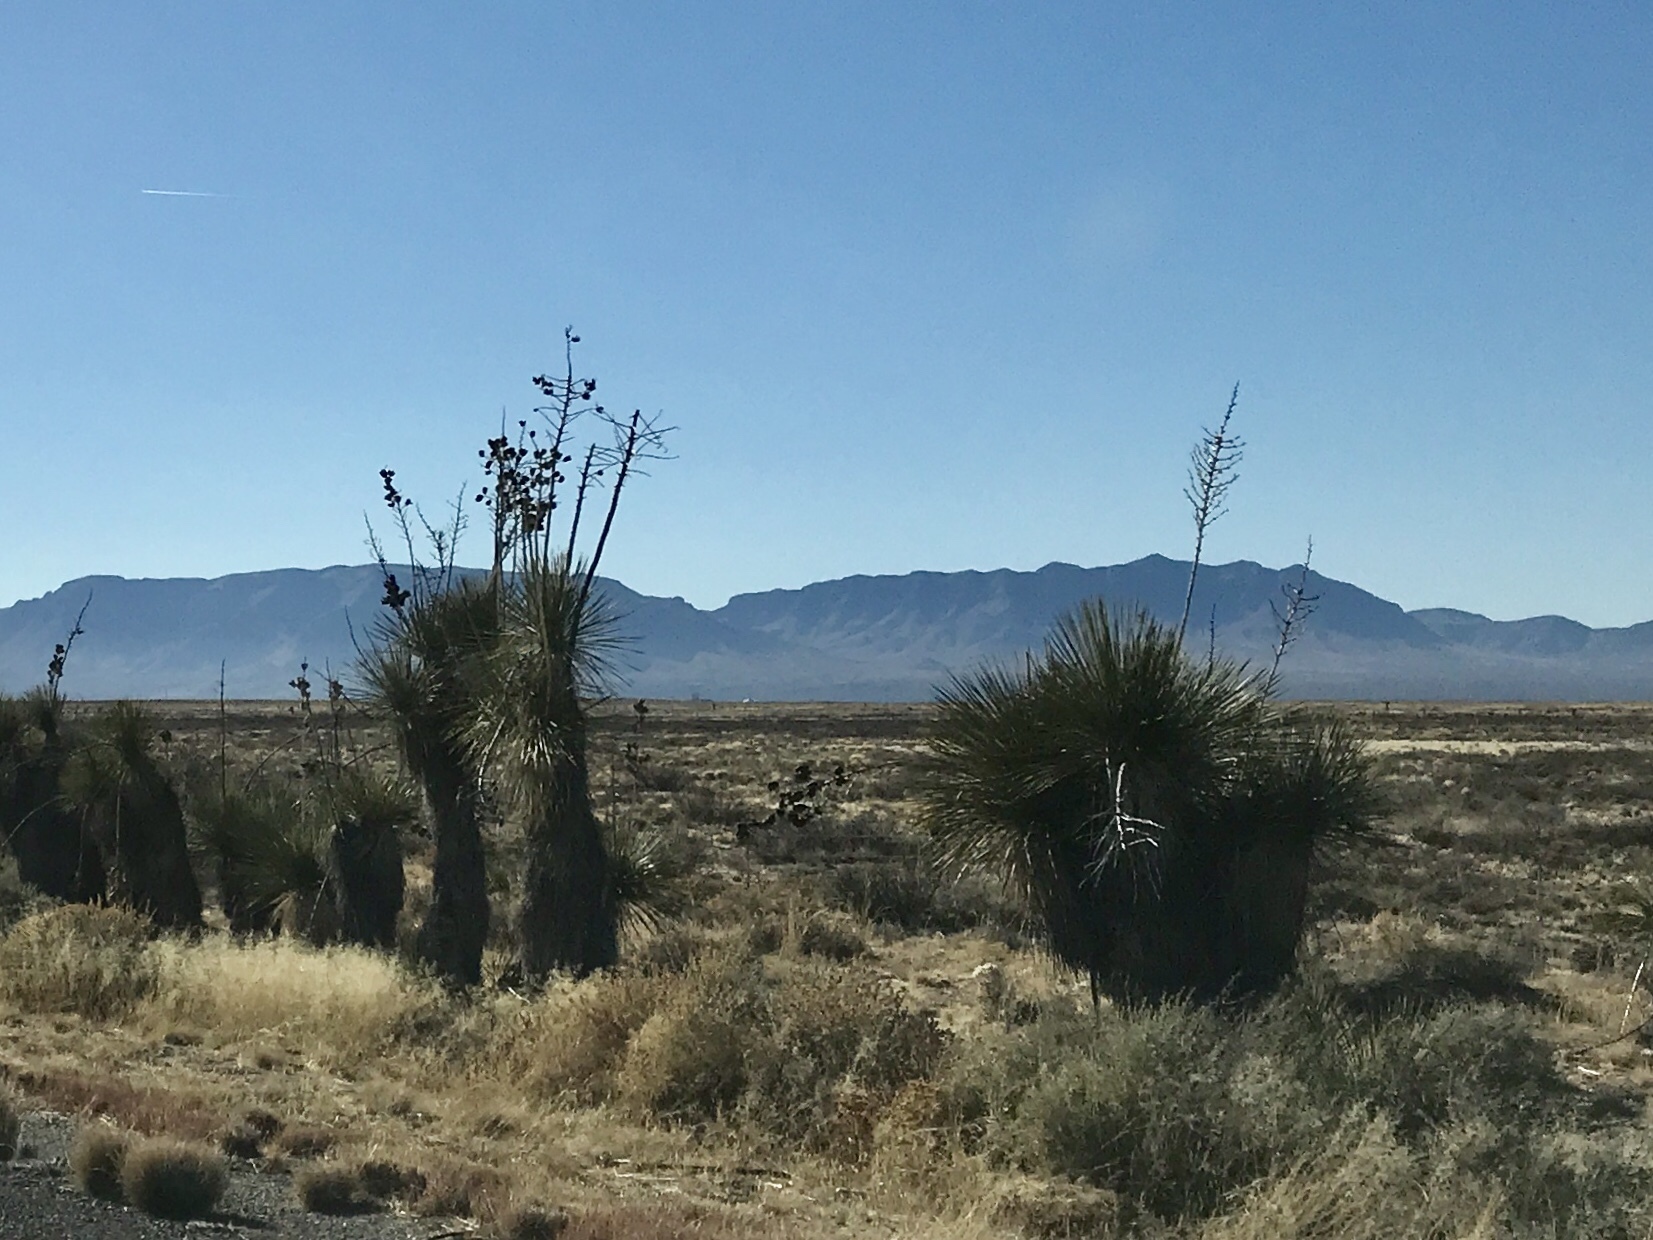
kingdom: Plantae
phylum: Tracheophyta
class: Liliopsida
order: Asparagales
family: Asparagaceae
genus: Yucca
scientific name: Yucca elata
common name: Palmella
